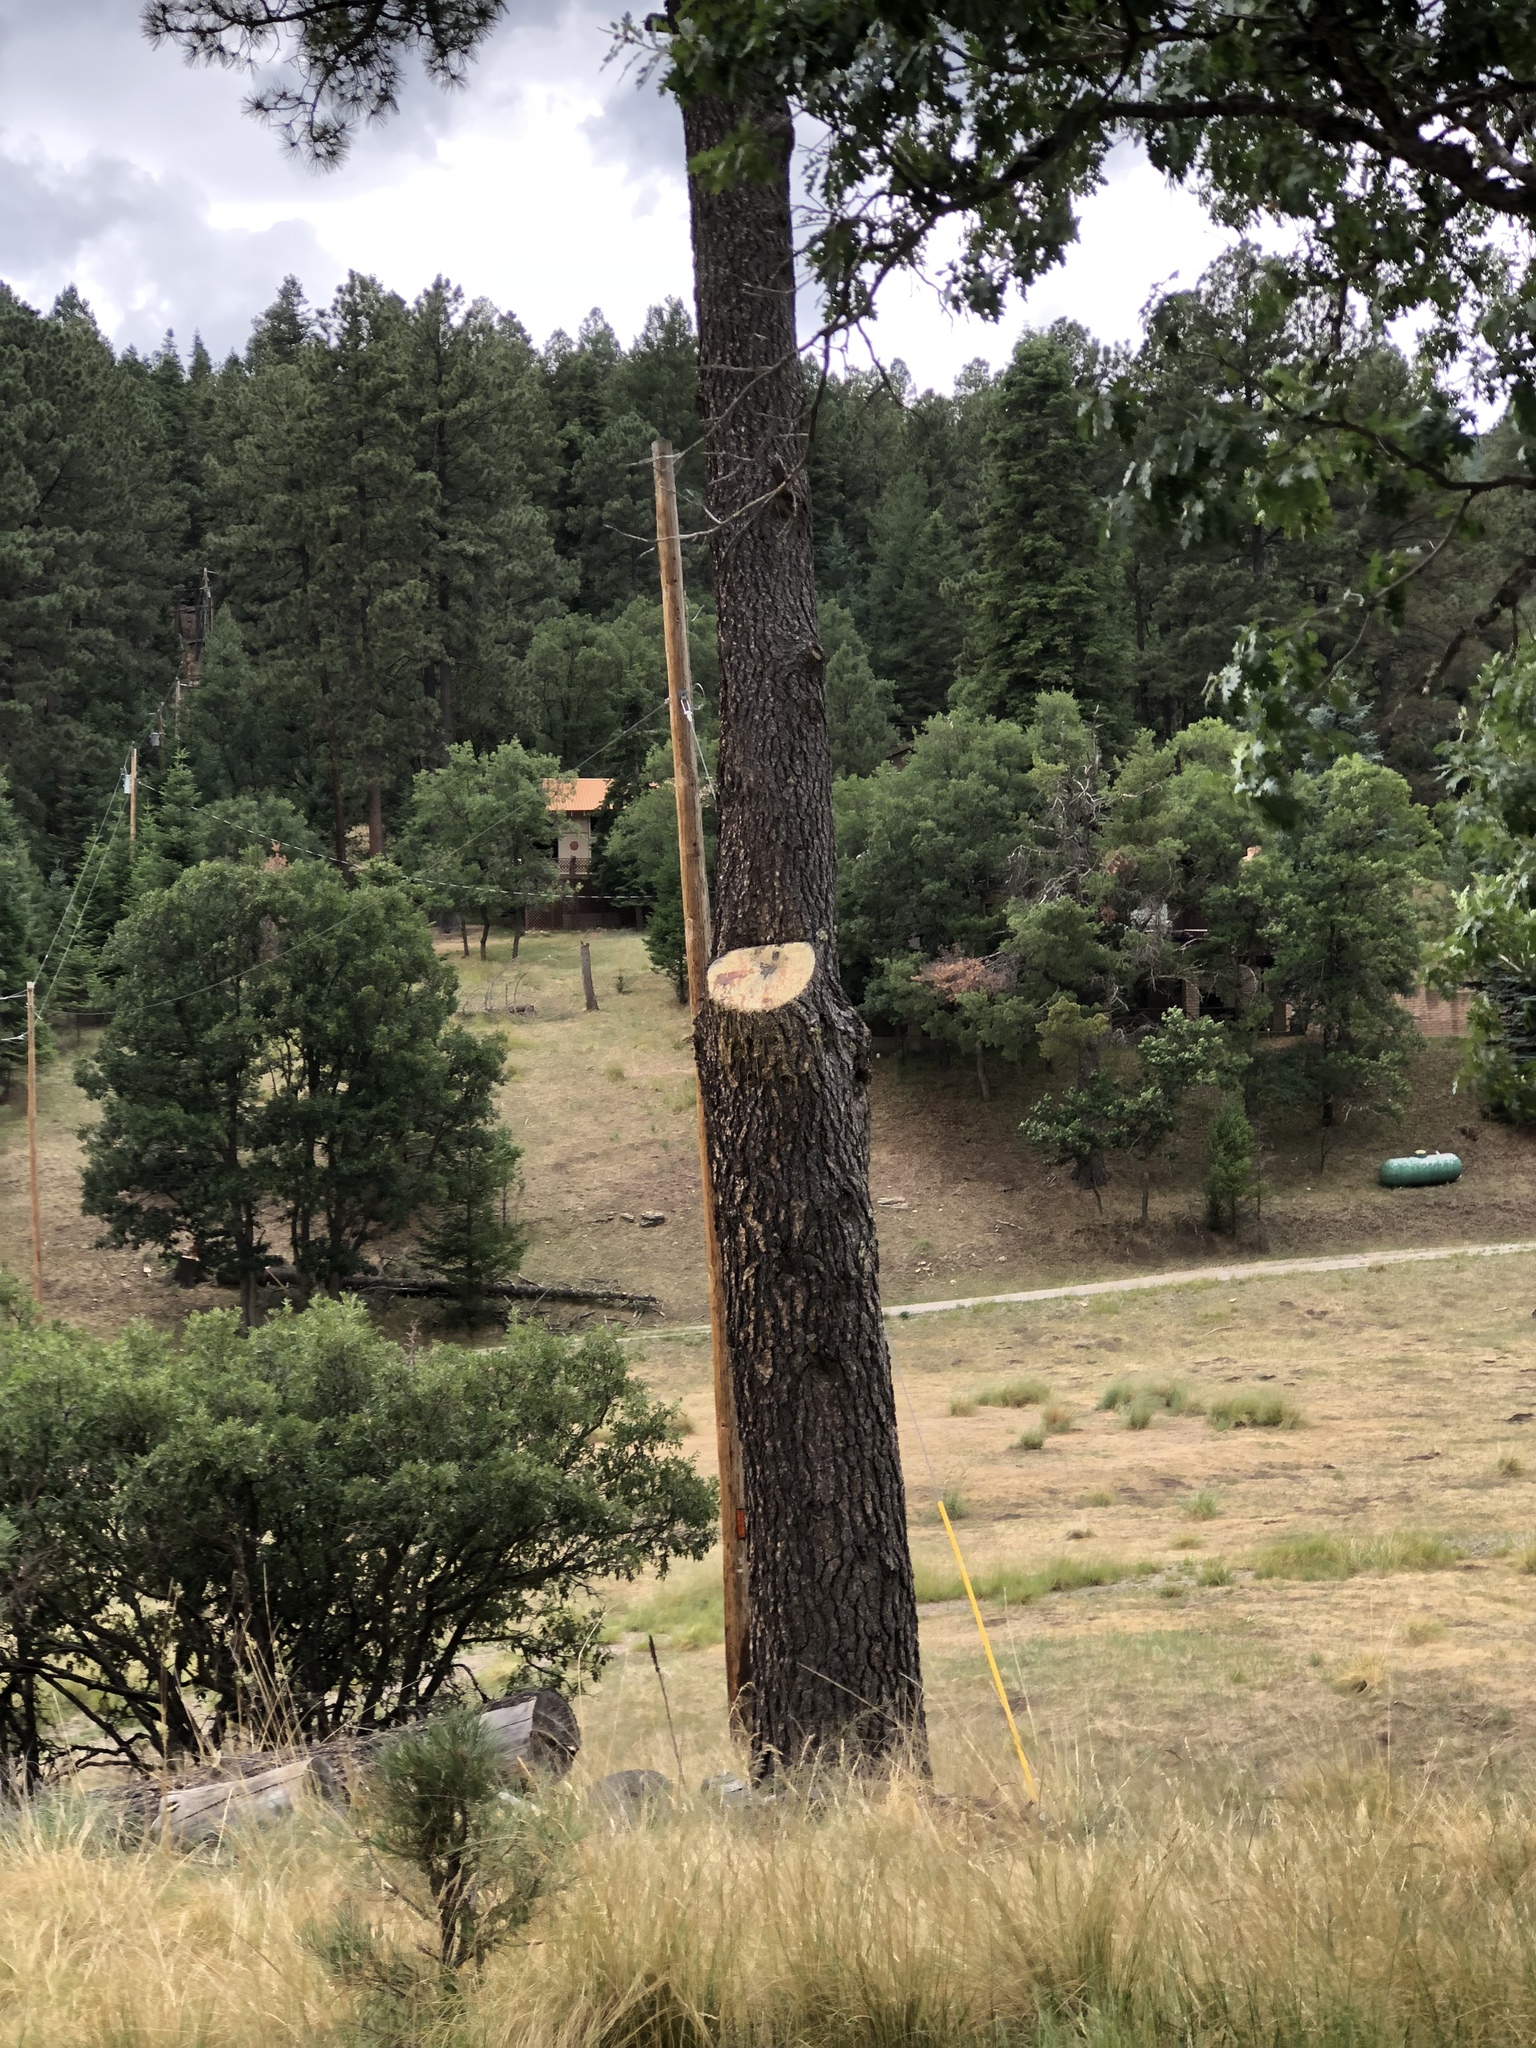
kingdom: Plantae
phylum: Tracheophyta
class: Pinopsida
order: Pinales
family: Pinaceae
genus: Pinus
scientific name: Pinus ponderosa
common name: Western yellow-pine
